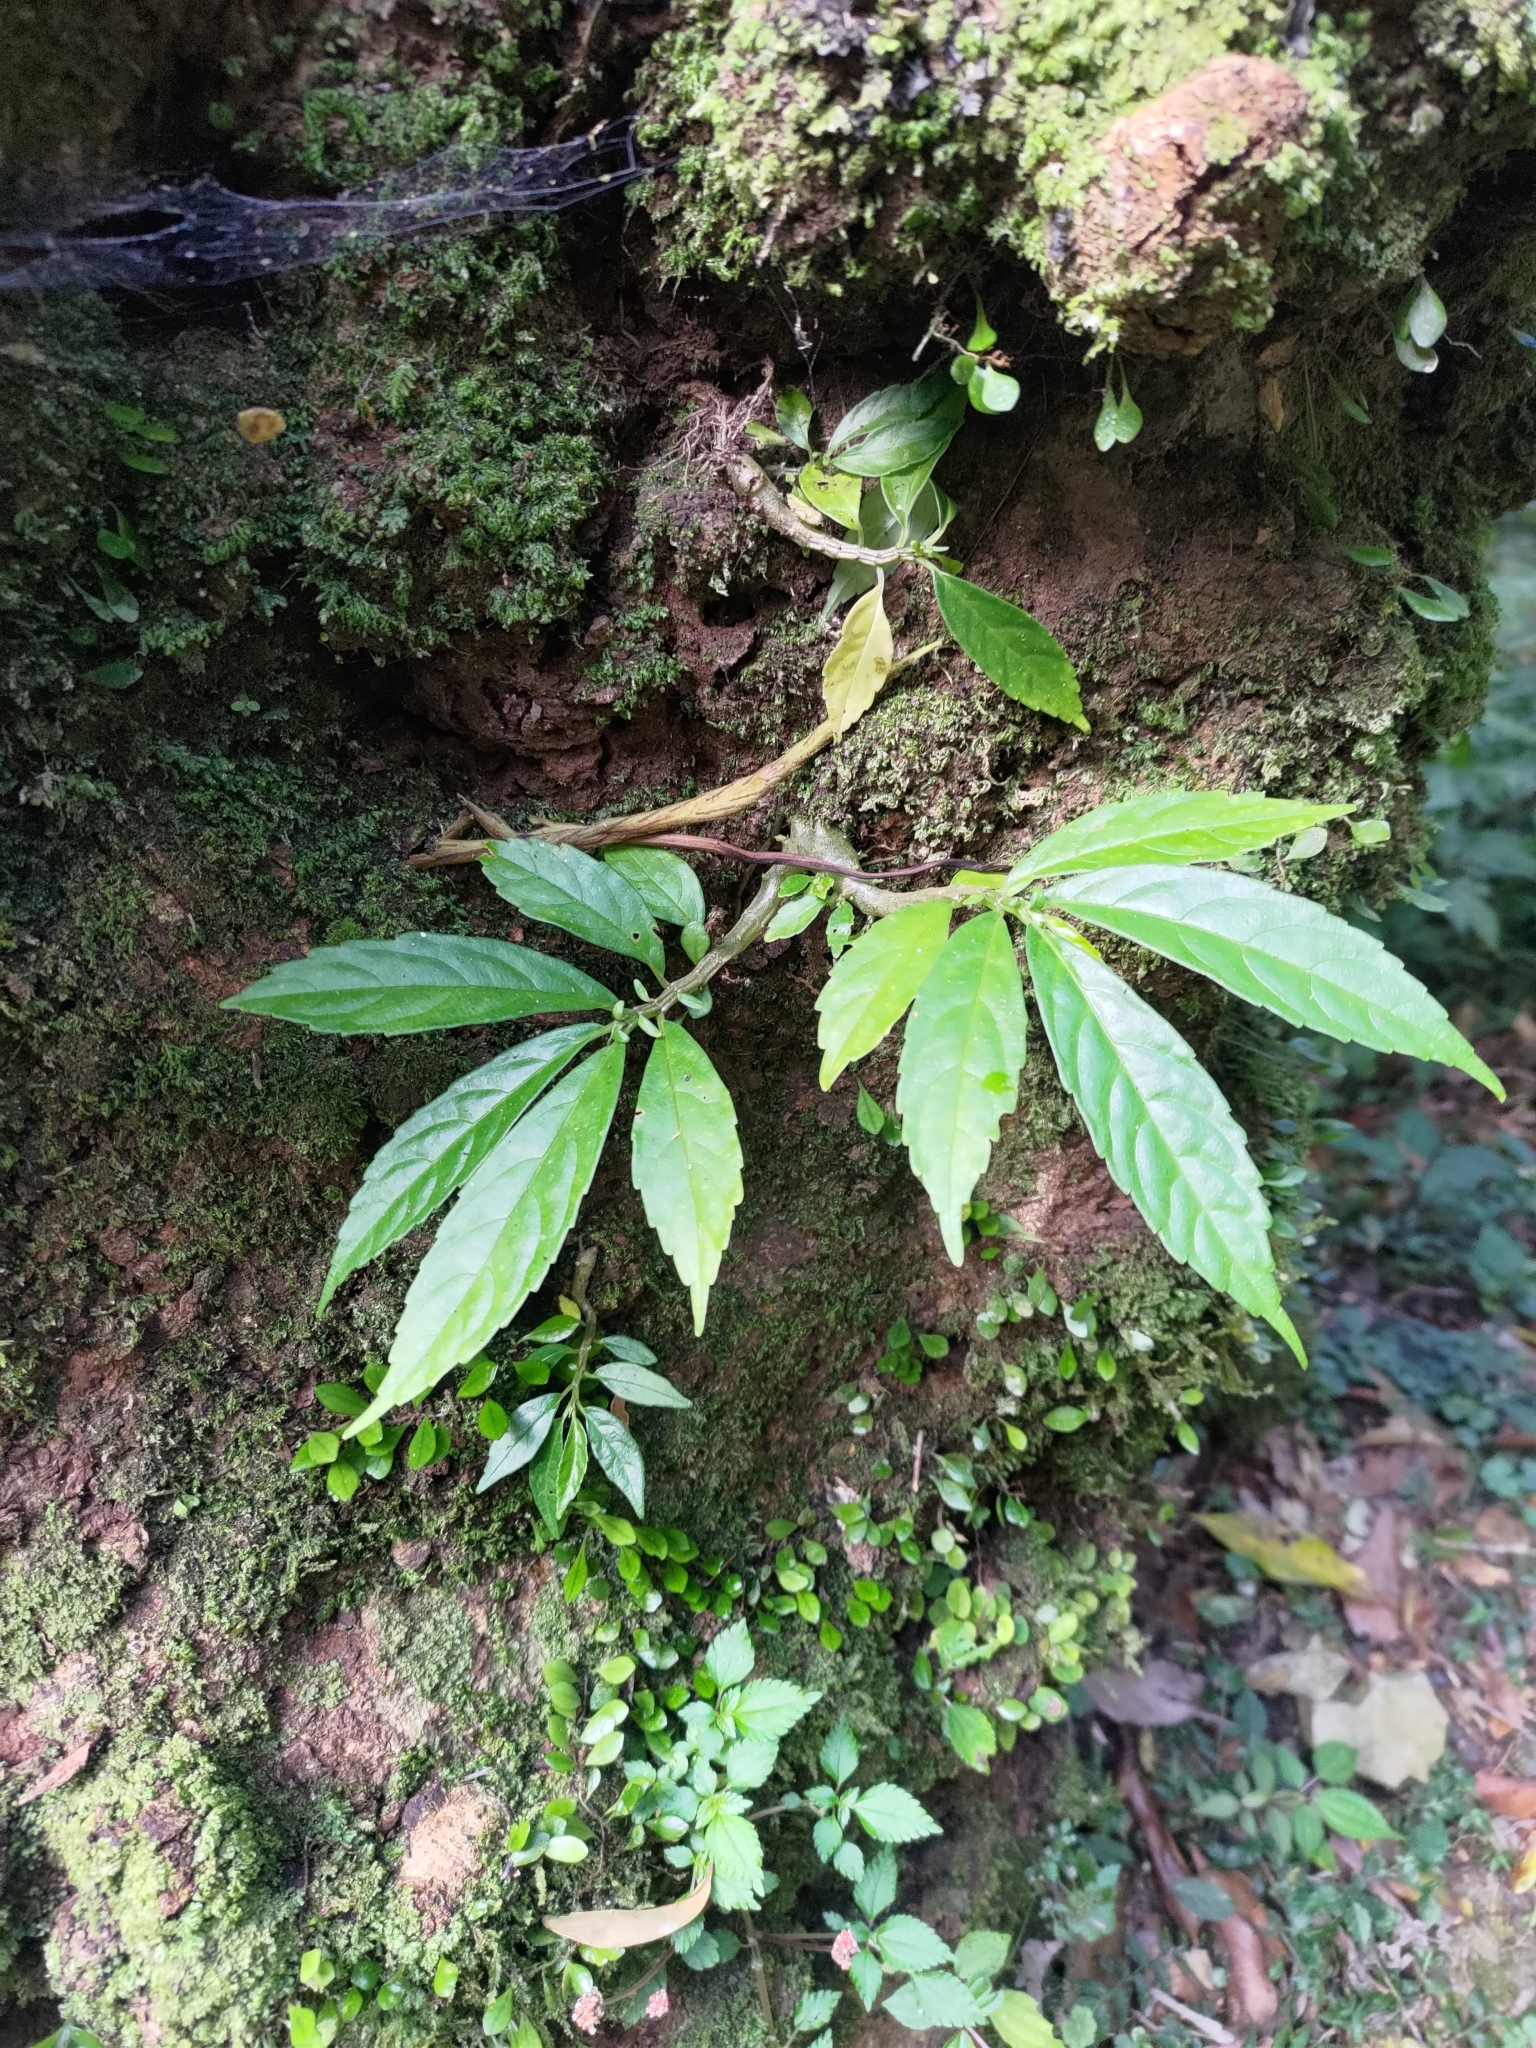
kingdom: Plantae
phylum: Tracheophyta
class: Magnoliopsida
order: Rosales
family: Urticaceae
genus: Procris
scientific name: Procris
